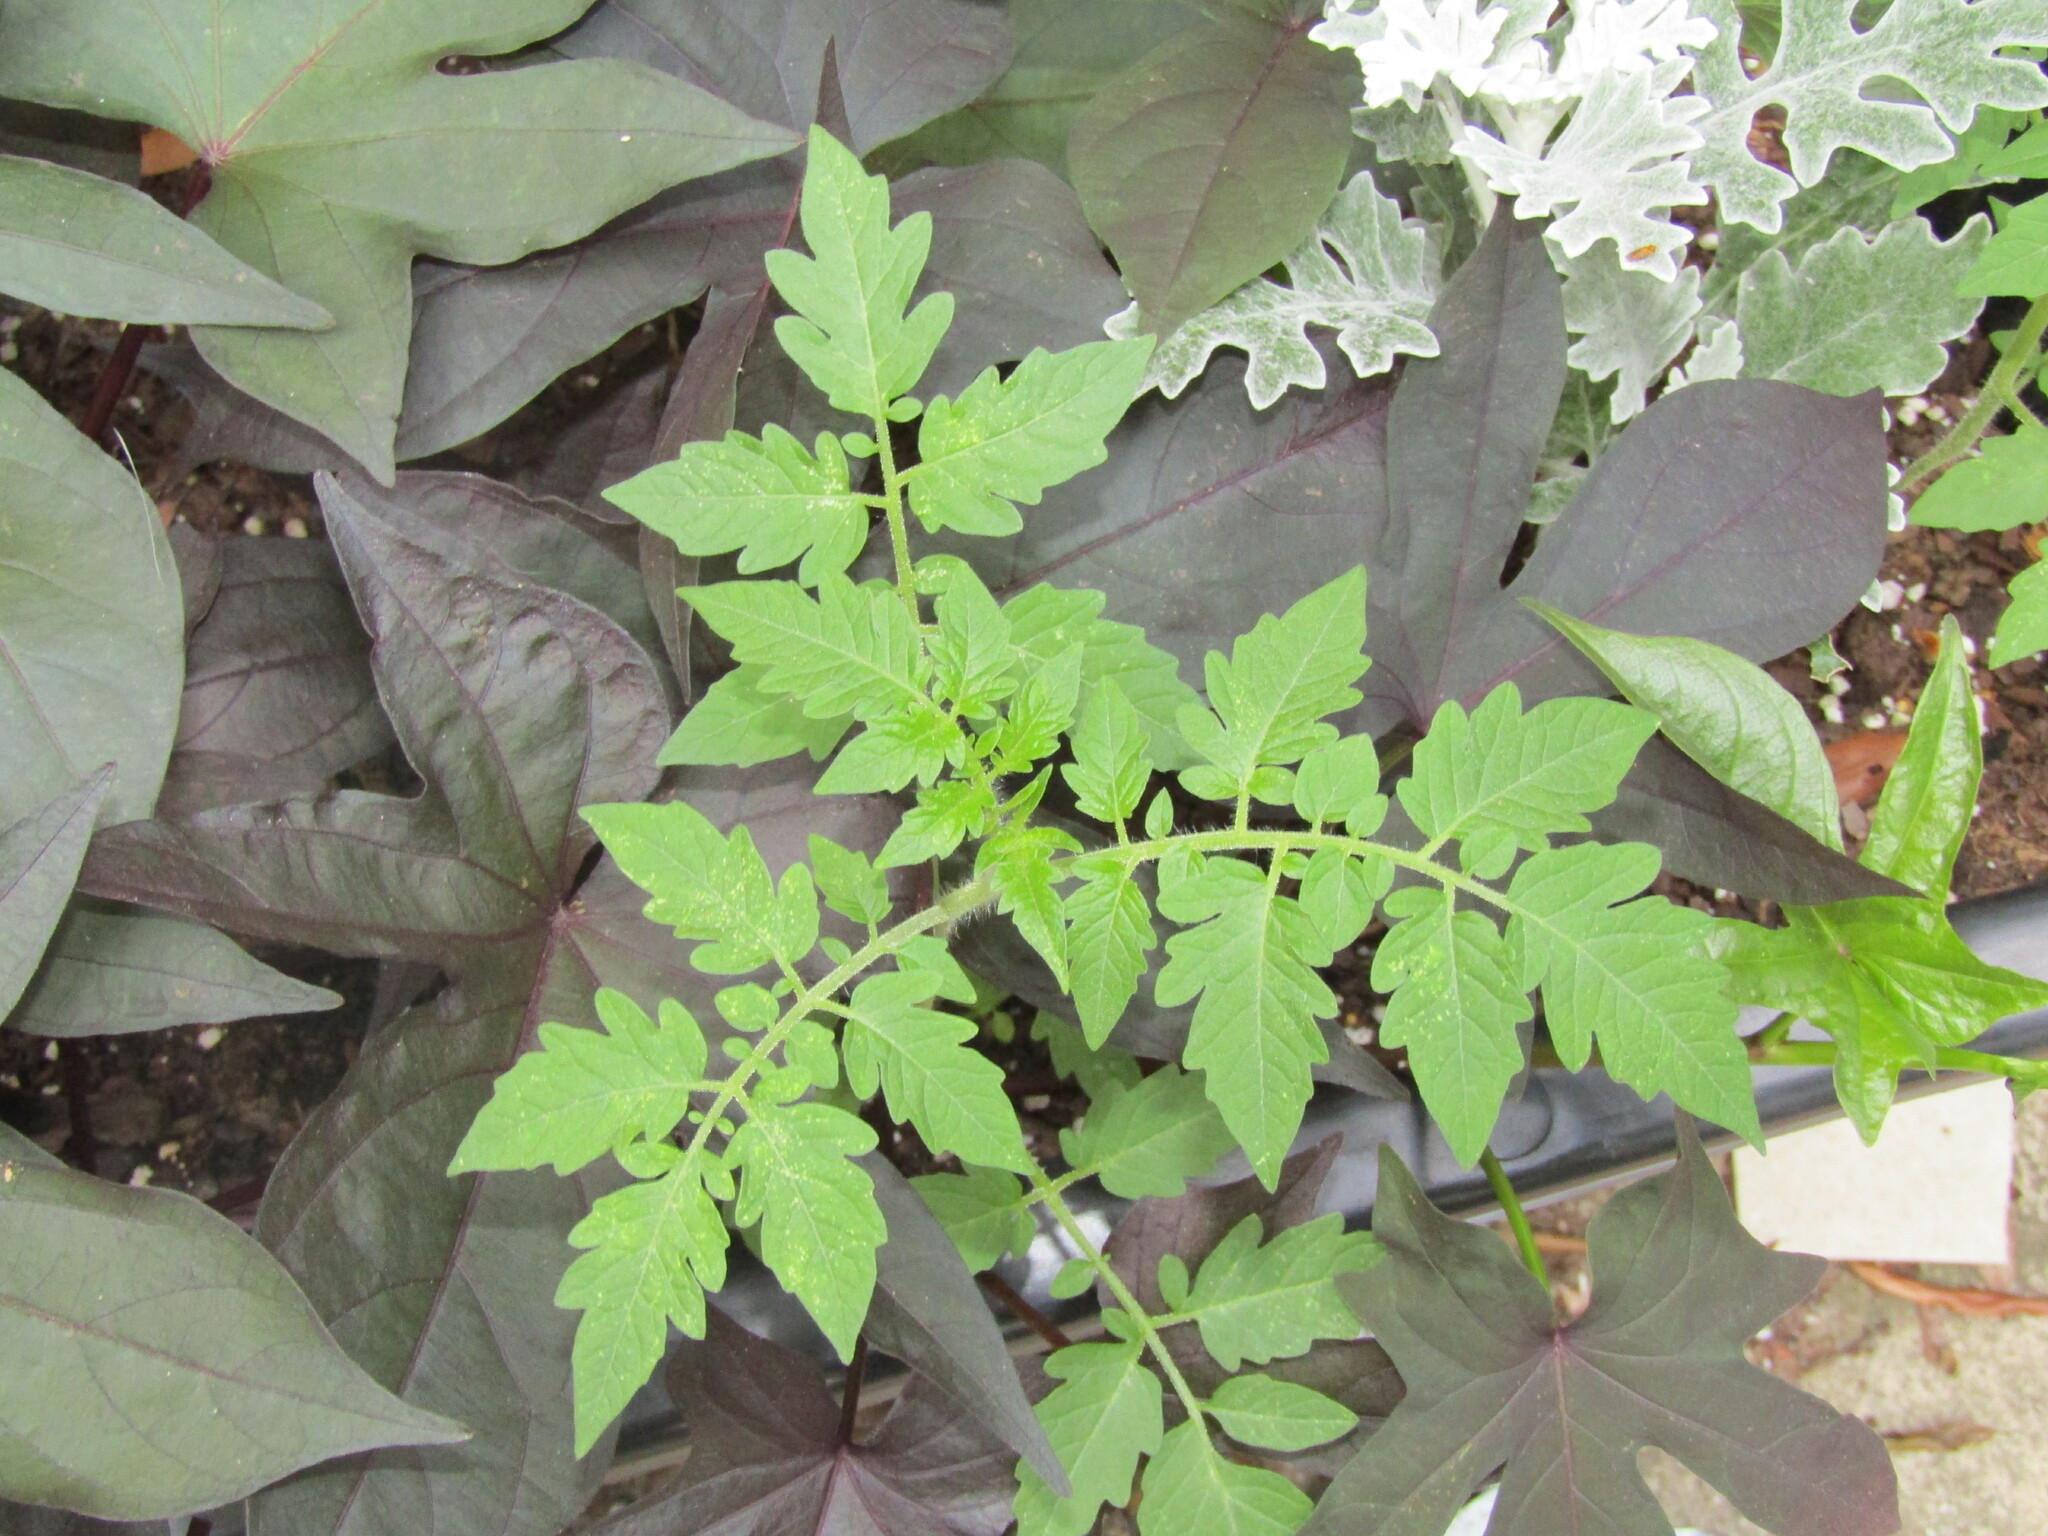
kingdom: Plantae
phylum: Tracheophyta
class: Magnoliopsida
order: Solanales
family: Solanaceae
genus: Solanum
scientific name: Solanum lycopersicum
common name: Garden tomato
